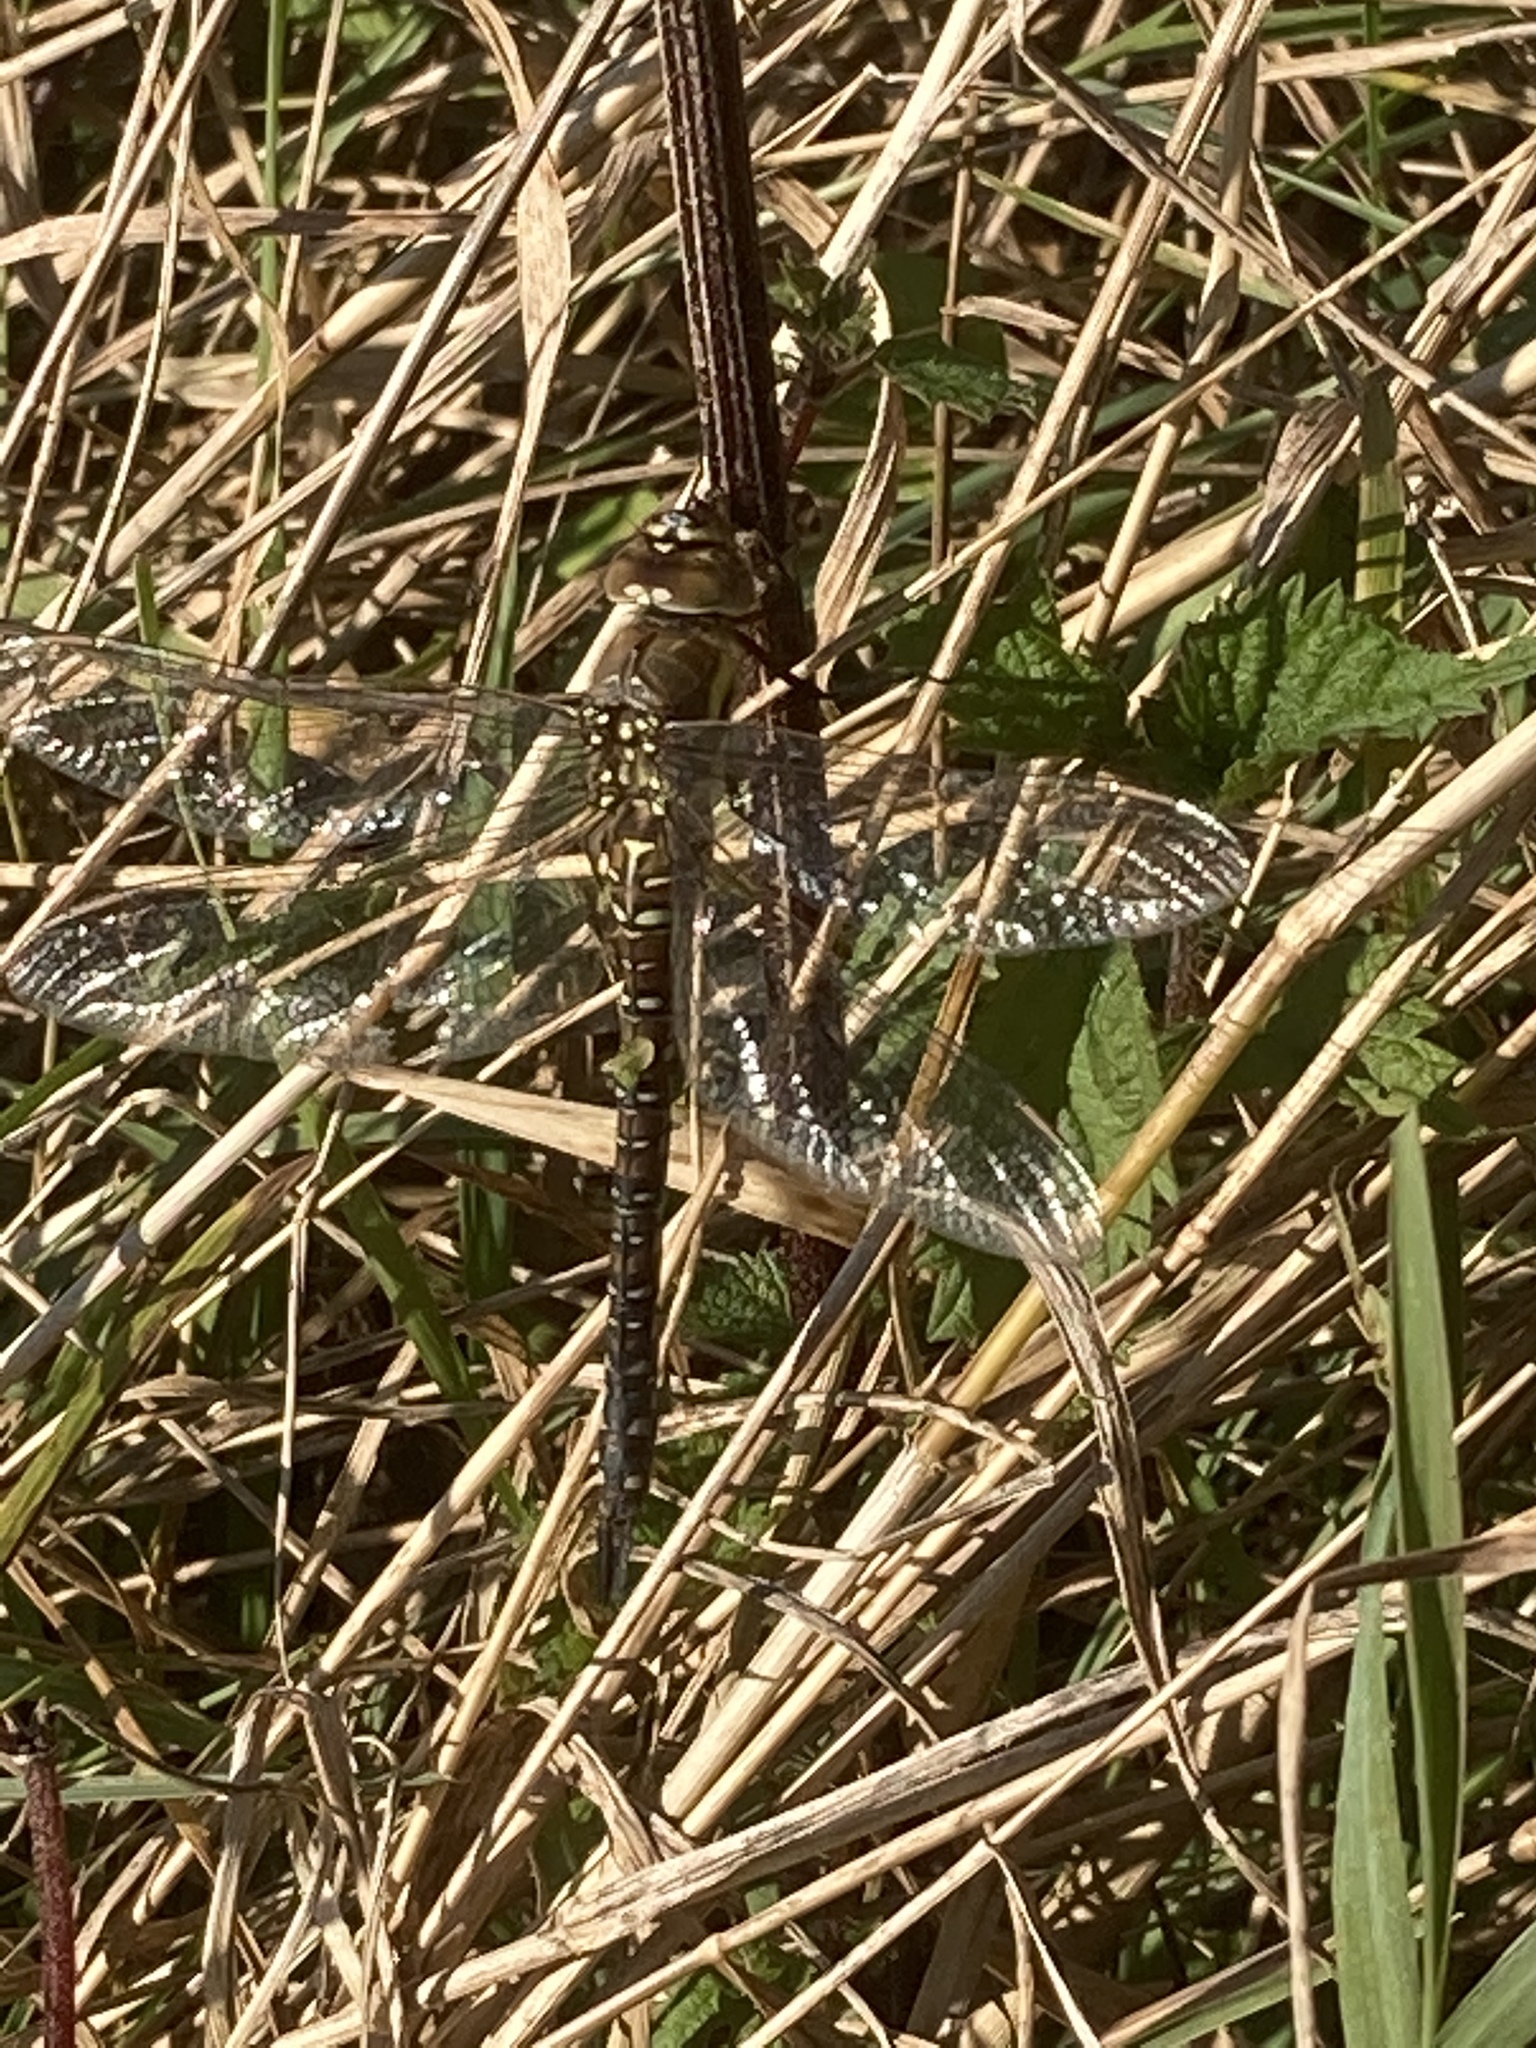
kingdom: Animalia
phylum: Arthropoda
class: Insecta
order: Odonata
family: Aeshnidae
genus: Aeshna
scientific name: Aeshna mixta
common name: Migrant hawker
